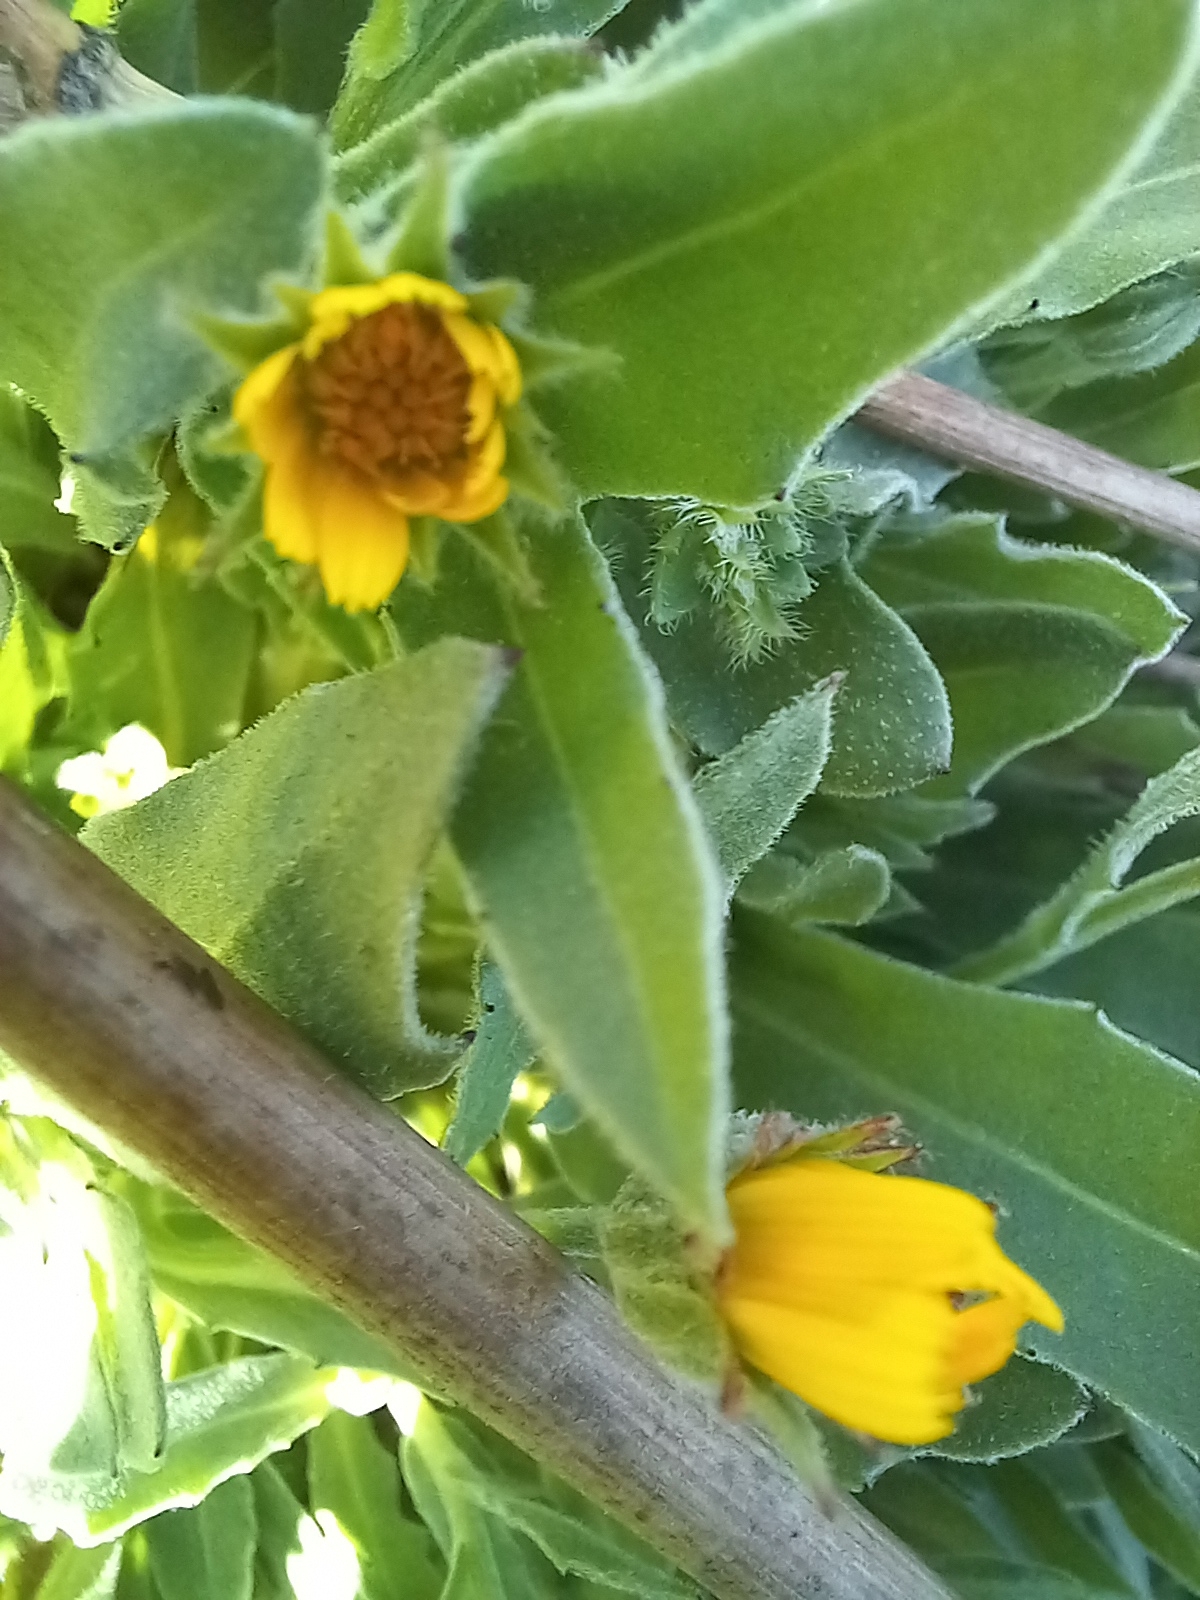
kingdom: Plantae
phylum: Tracheophyta
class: Magnoliopsida
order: Asterales
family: Asteraceae
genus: Calendula
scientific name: Calendula arvensis
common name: Field marigold
